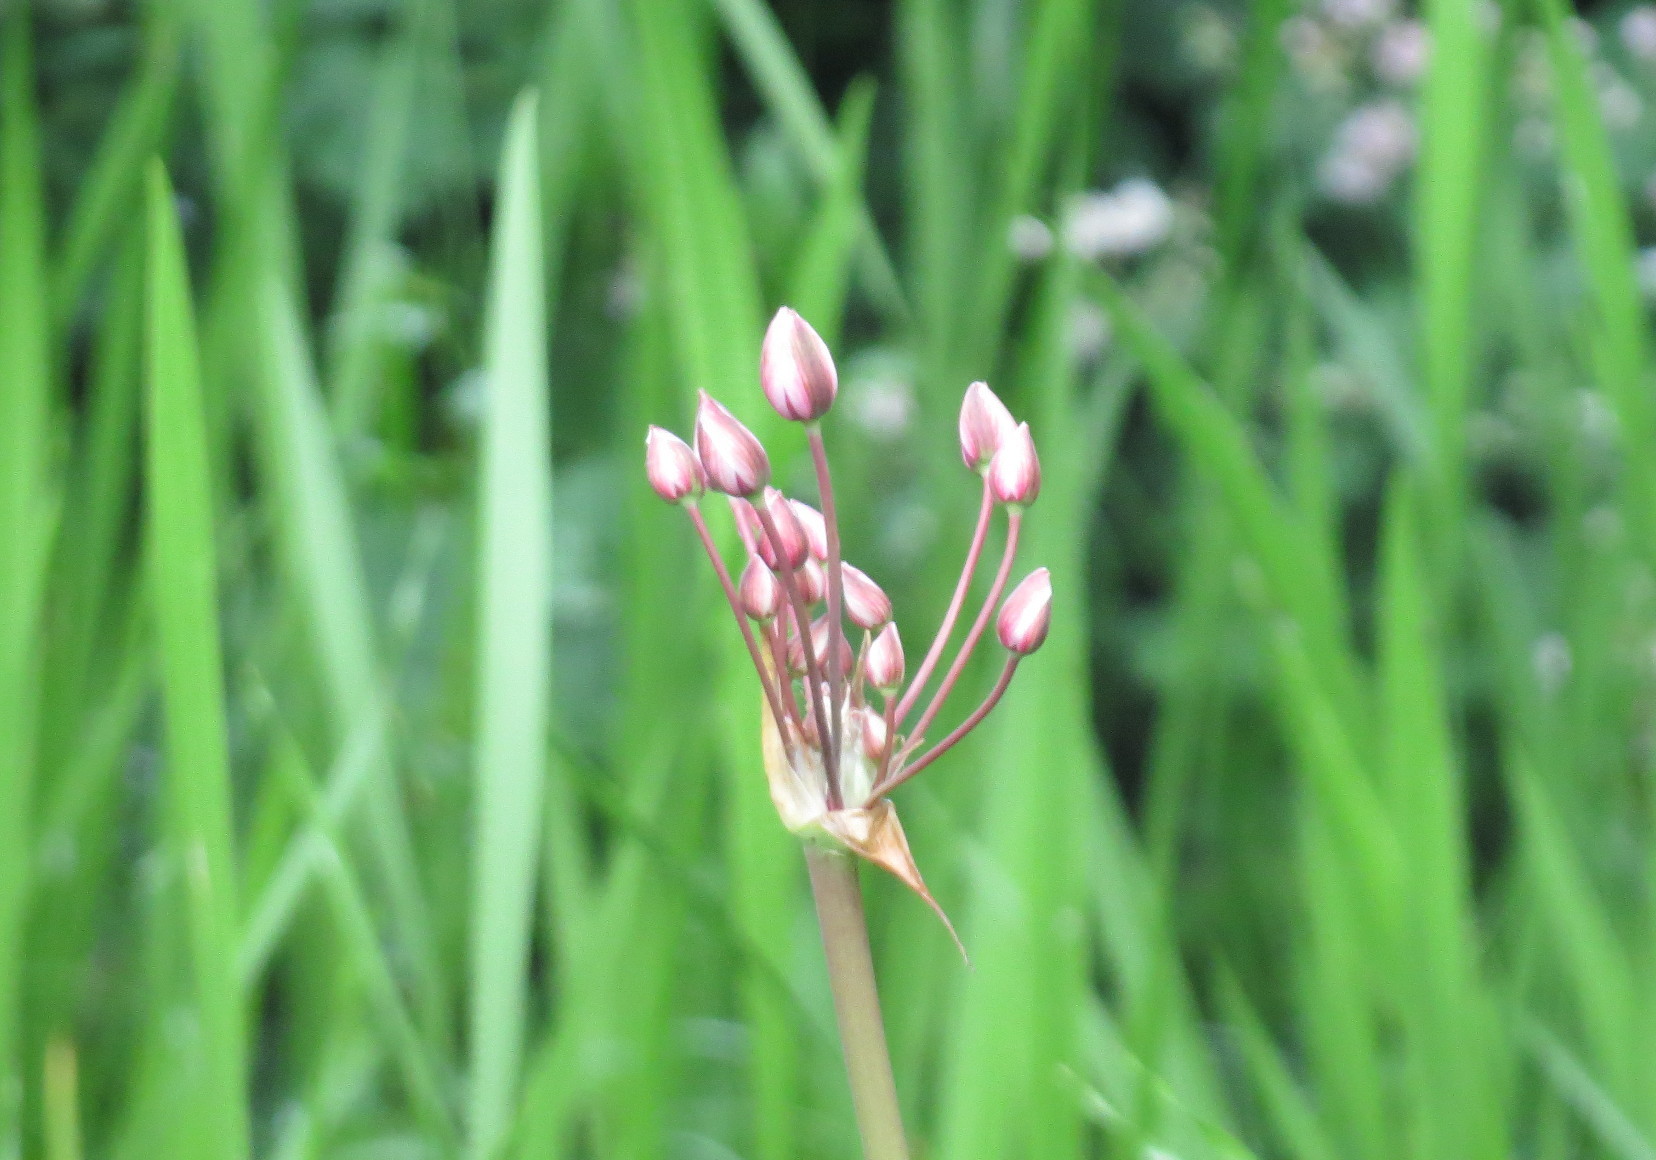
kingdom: Plantae
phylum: Tracheophyta
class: Liliopsida
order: Alismatales
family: Butomaceae
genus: Butomus
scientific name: Butomus umbellatus
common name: Flowering-rush
